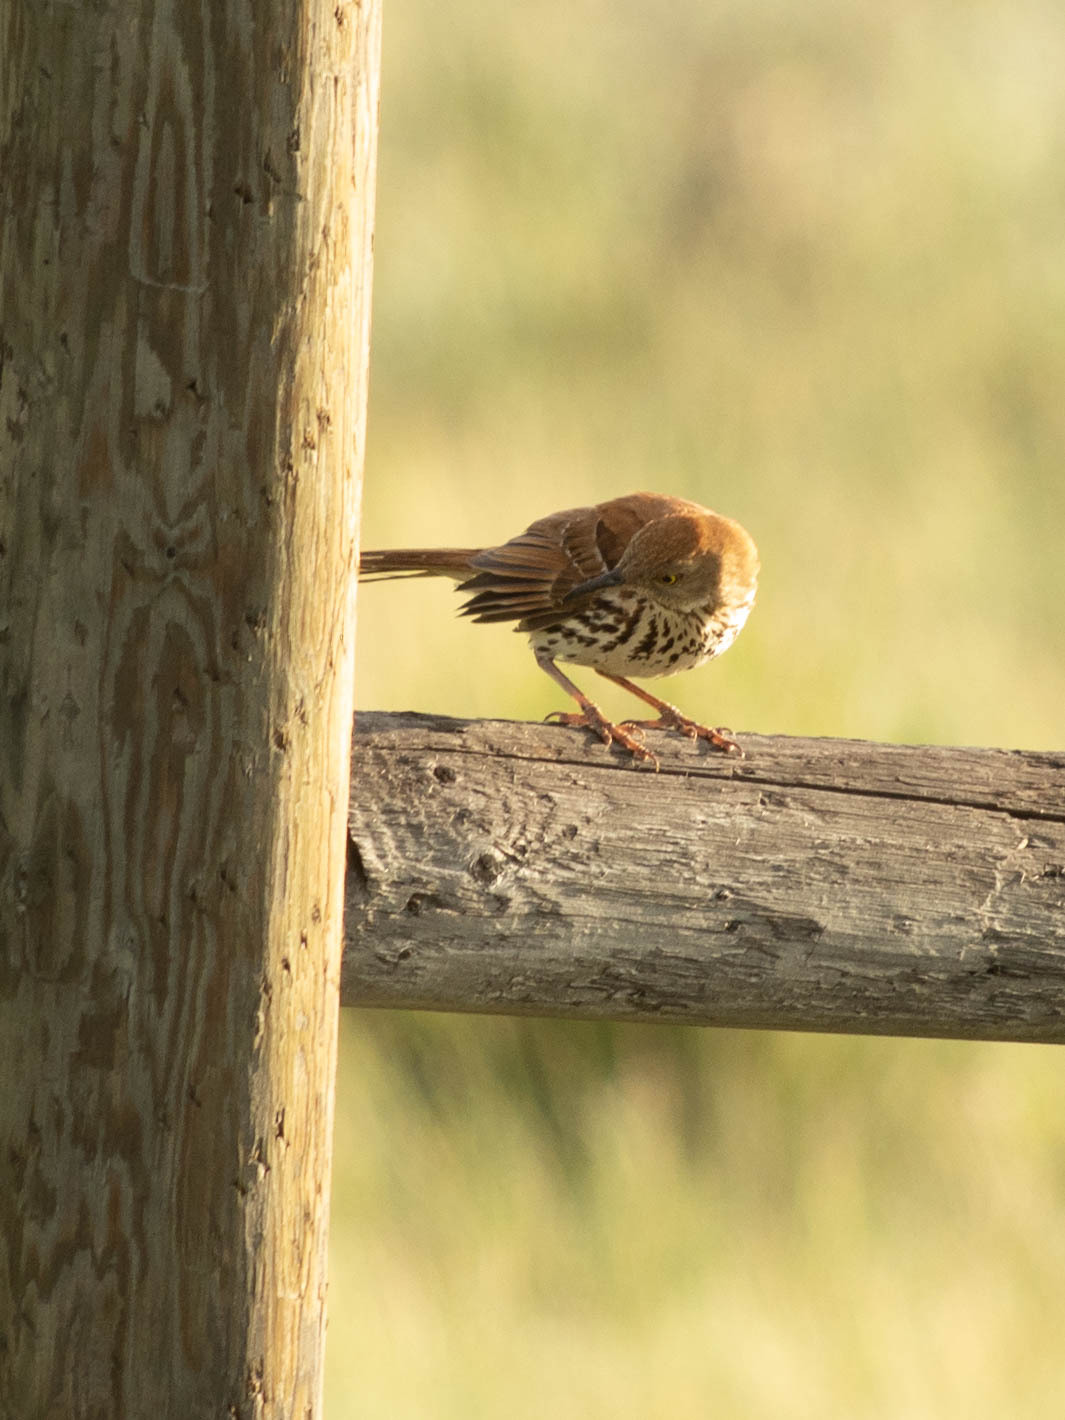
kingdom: Animalia
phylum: Chordata
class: Aves
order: Passeriformes
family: Mimidae
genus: Toxostoma
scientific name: Toxostoma rufum
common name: Brown thrasher
